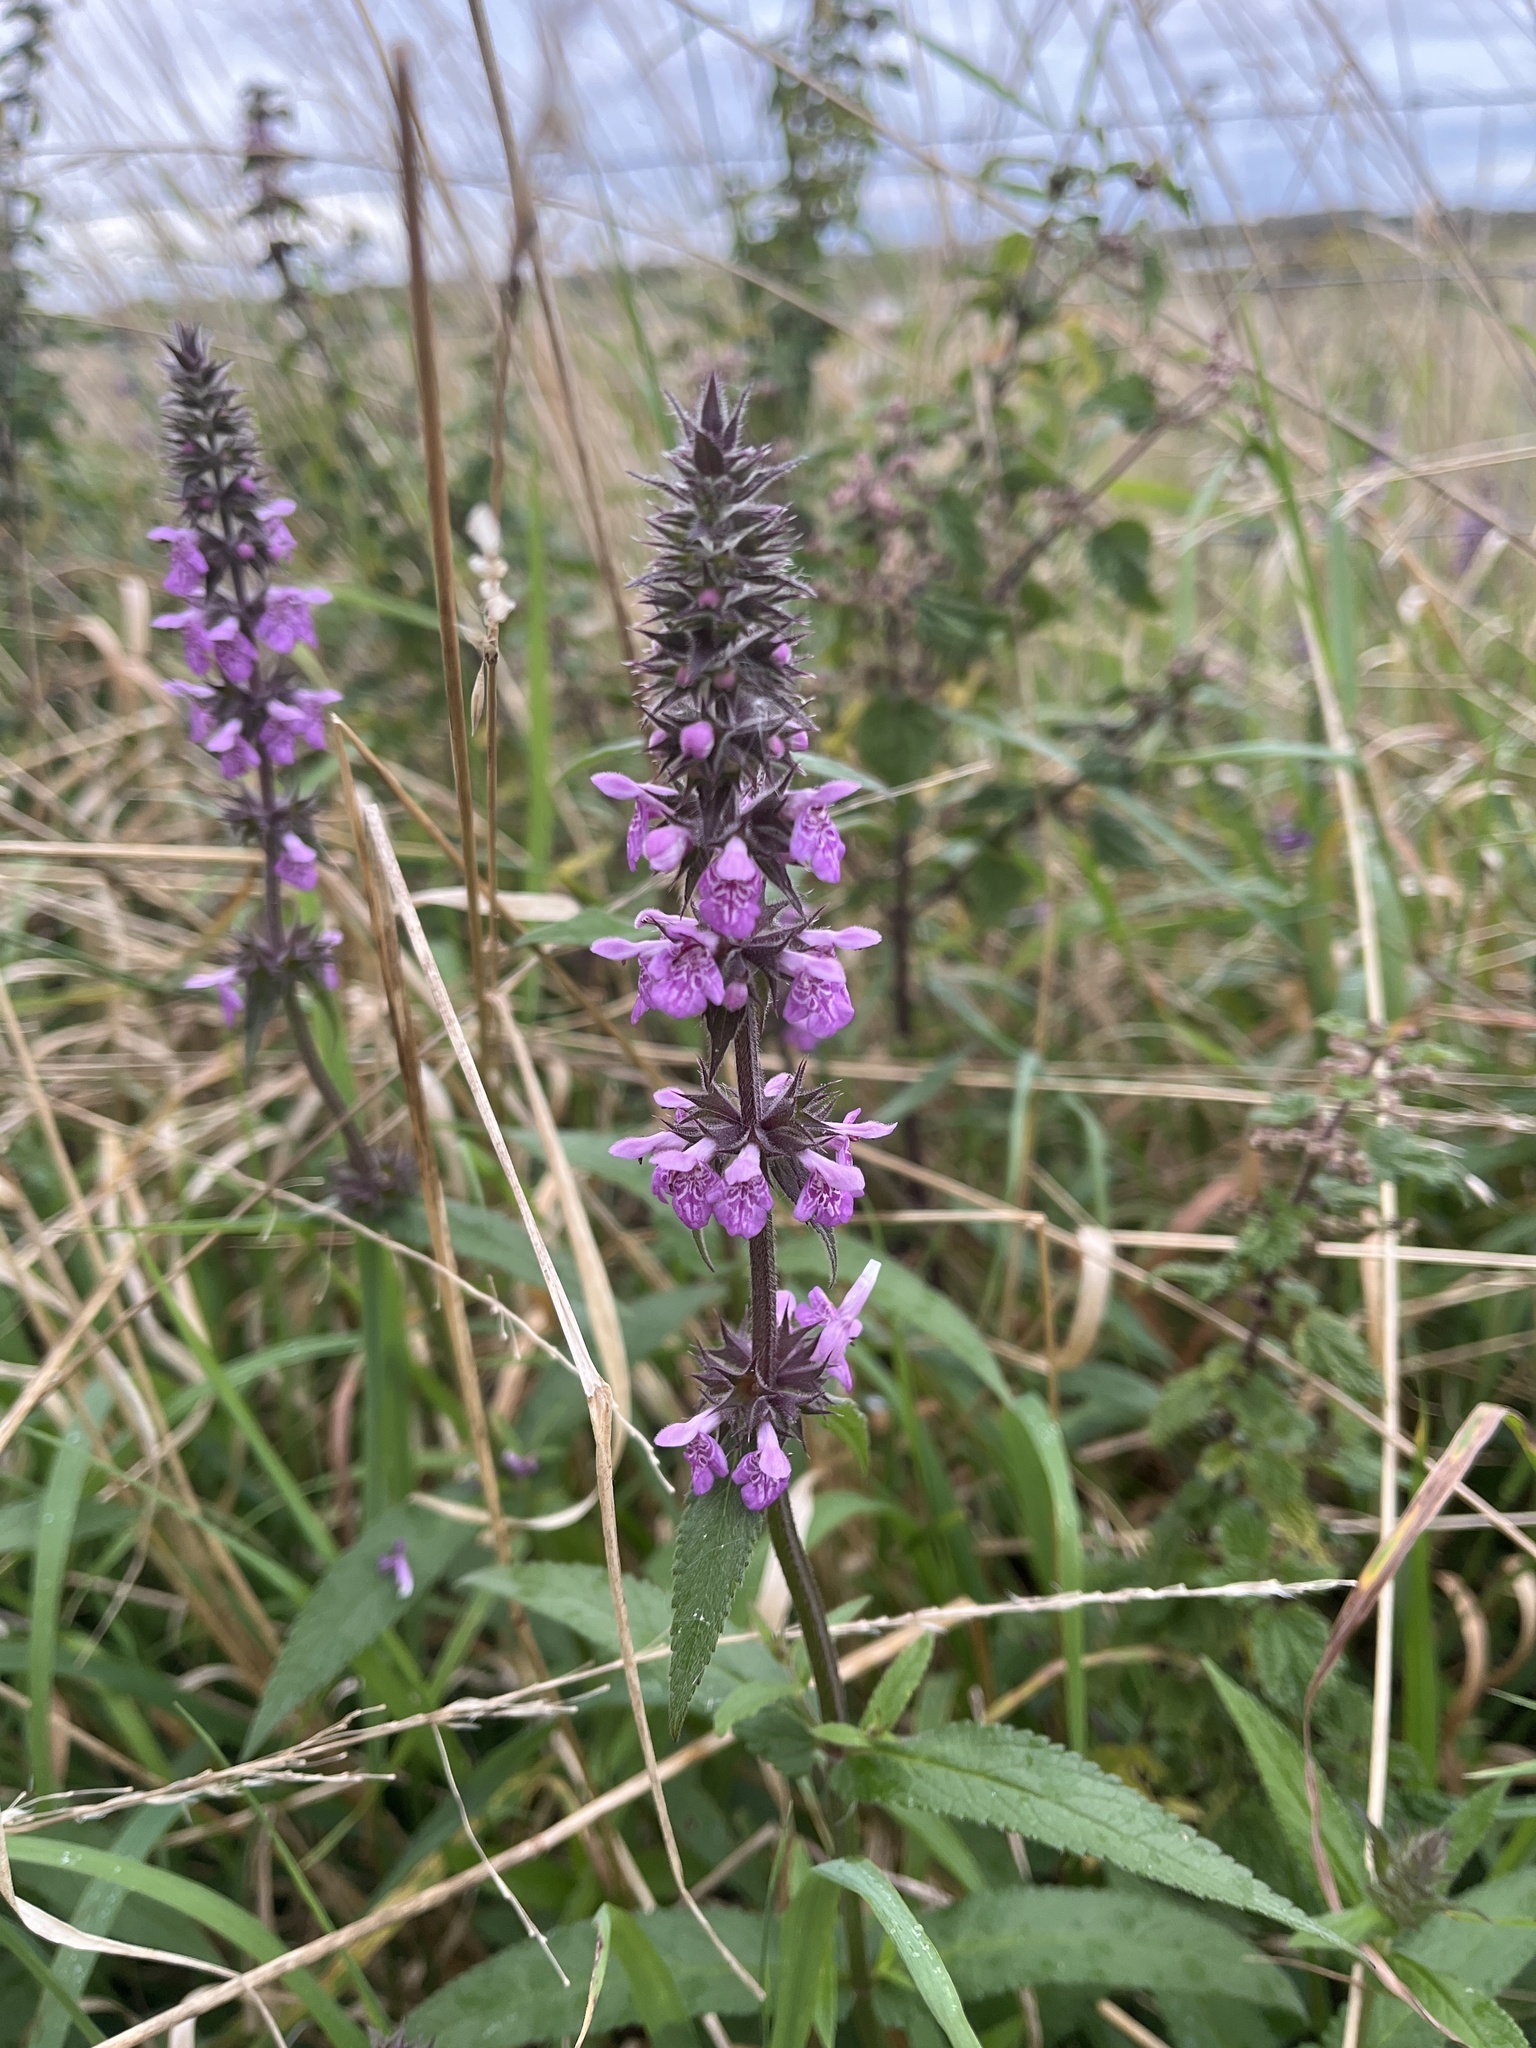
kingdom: Plantae
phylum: Tracheophyta
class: Magnoliopsida
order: Lamiales
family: Lamiaceae
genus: Stachys
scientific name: Stachys palustris
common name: Marsh woundwort
